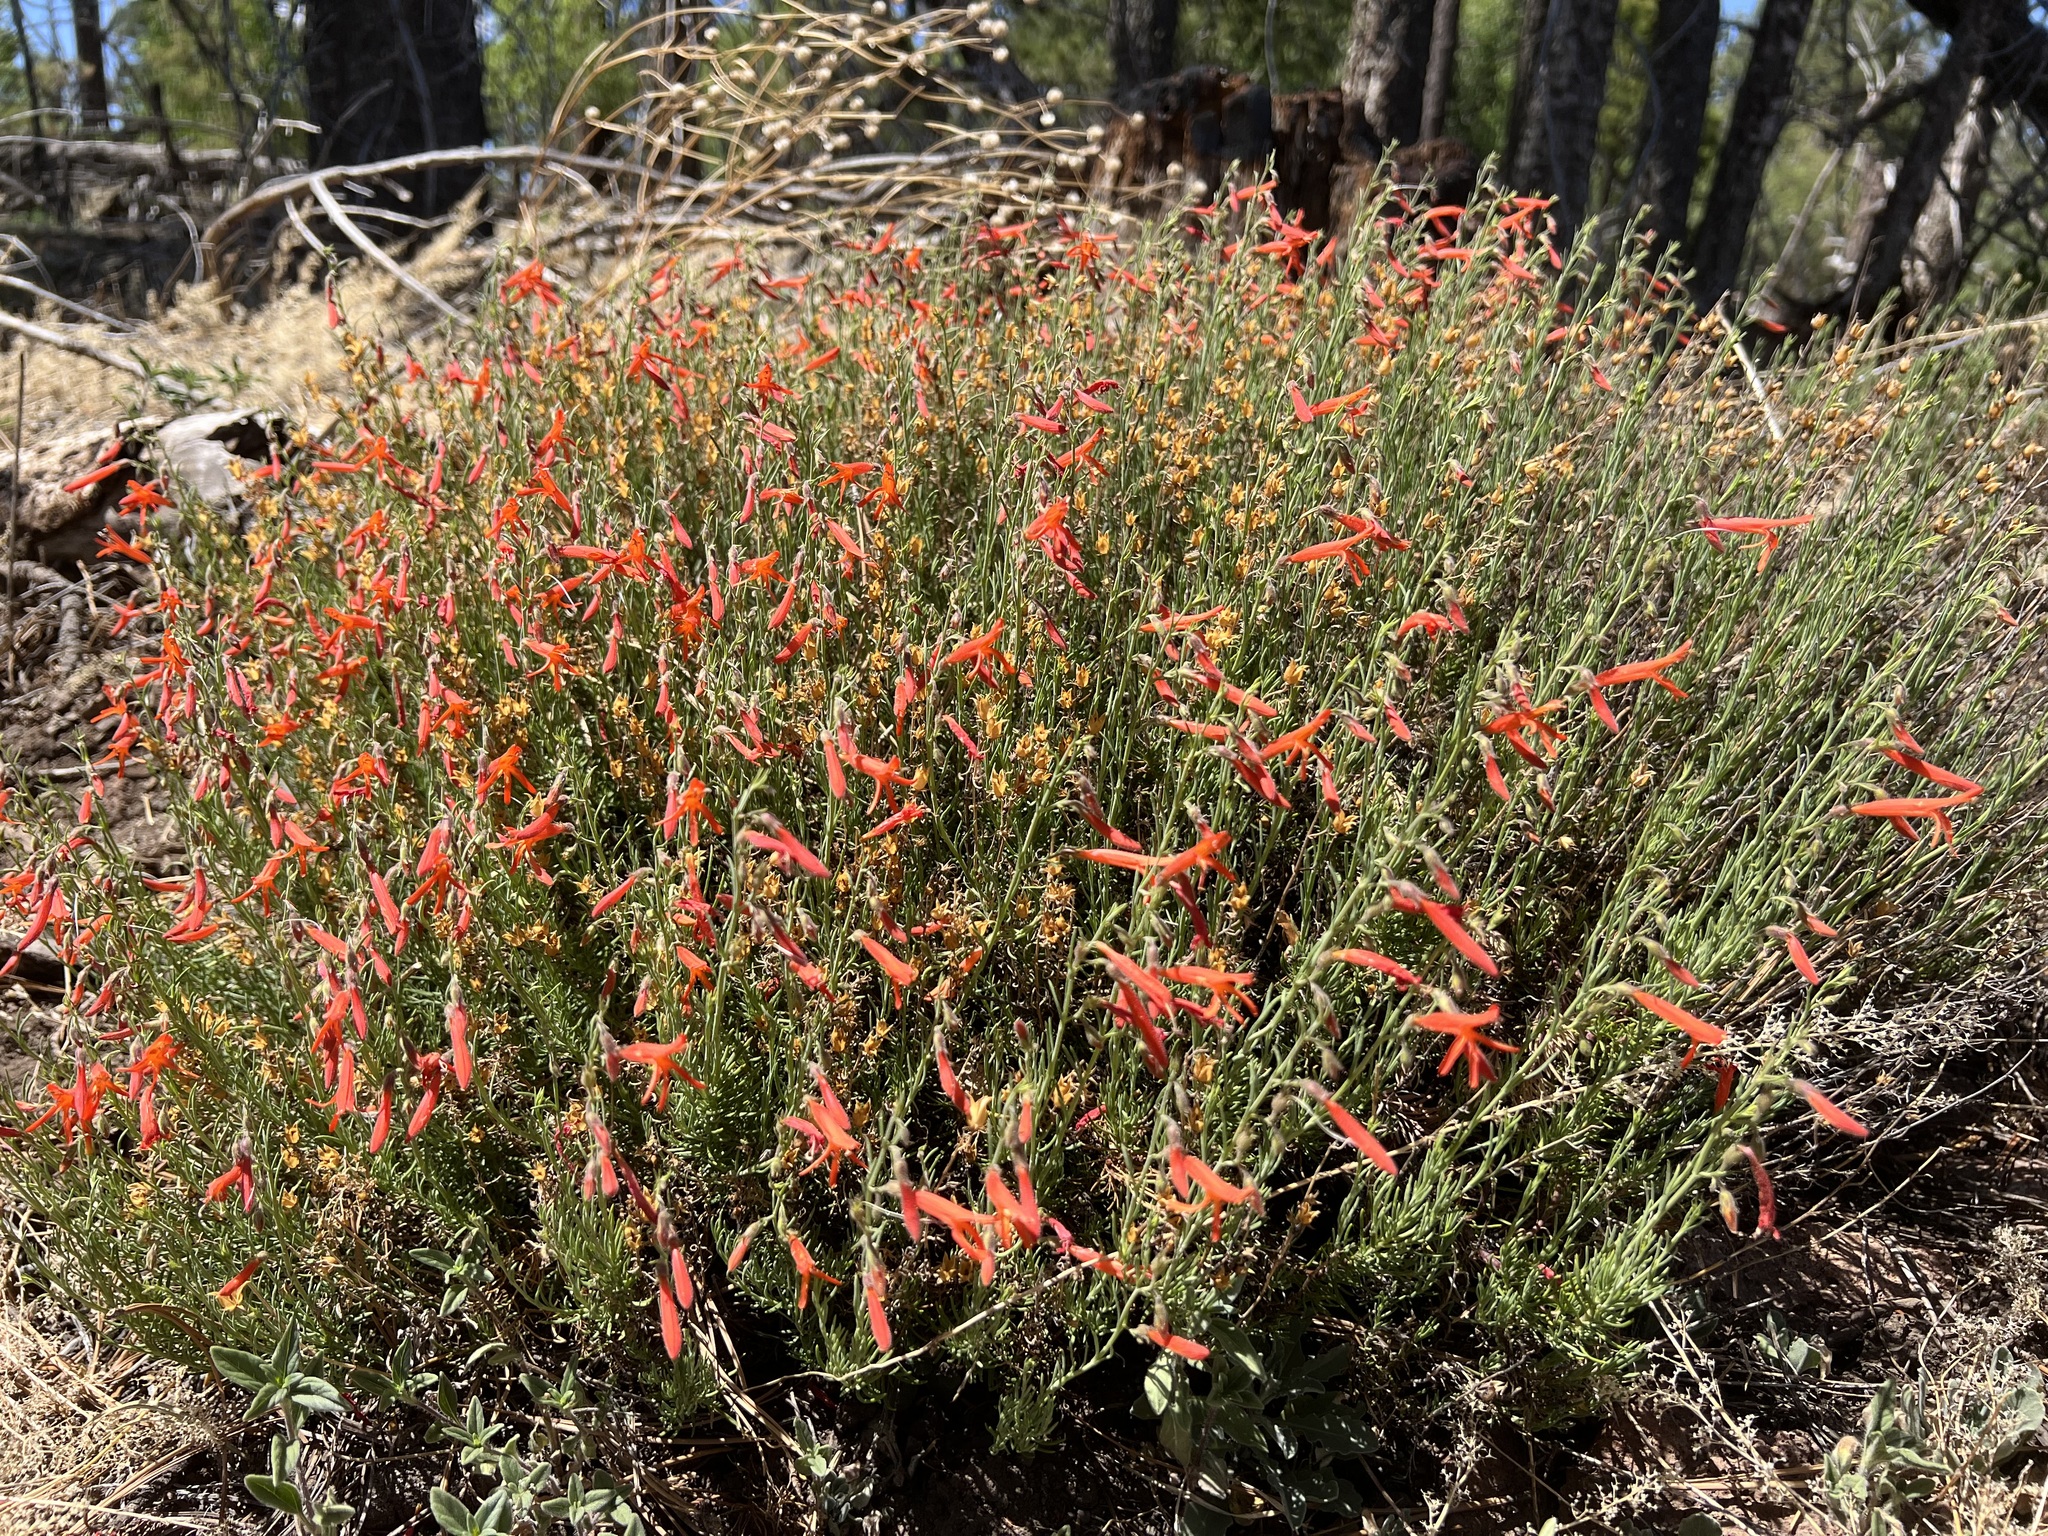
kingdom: Plantae
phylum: Tracheophyta
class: Magnoliopsida
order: Lamiales
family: Plantaginaceae
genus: Penstemon
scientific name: Penstemon pinifolius
